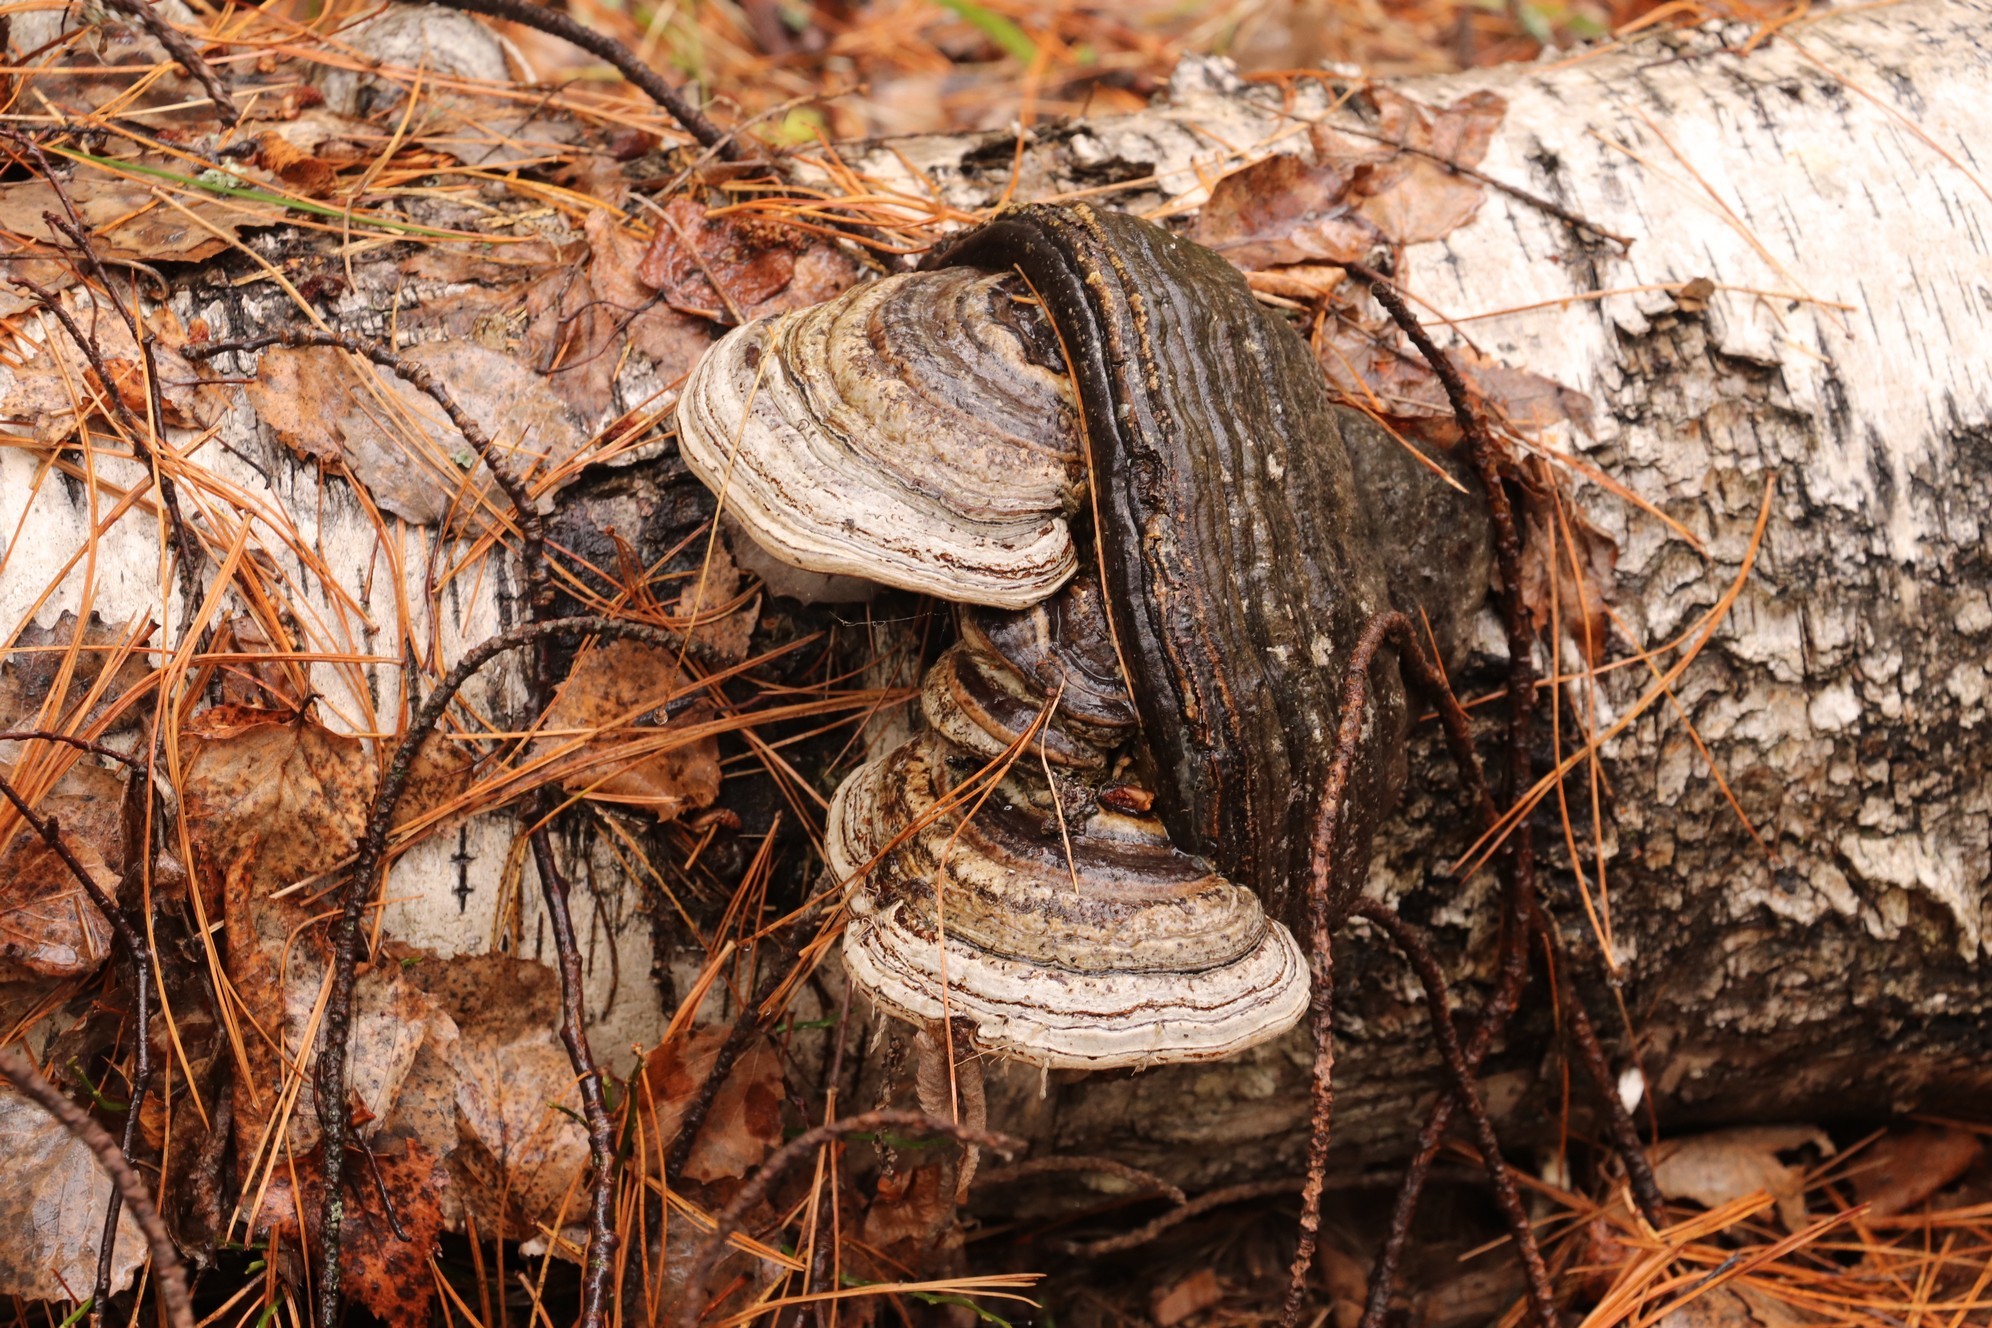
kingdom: Fungi
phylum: Basidiomycota
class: Agaricomycetes
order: Polyporales
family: Polyporaceae
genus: Fomes
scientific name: Fomes fomentarius
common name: Hoof fungus
